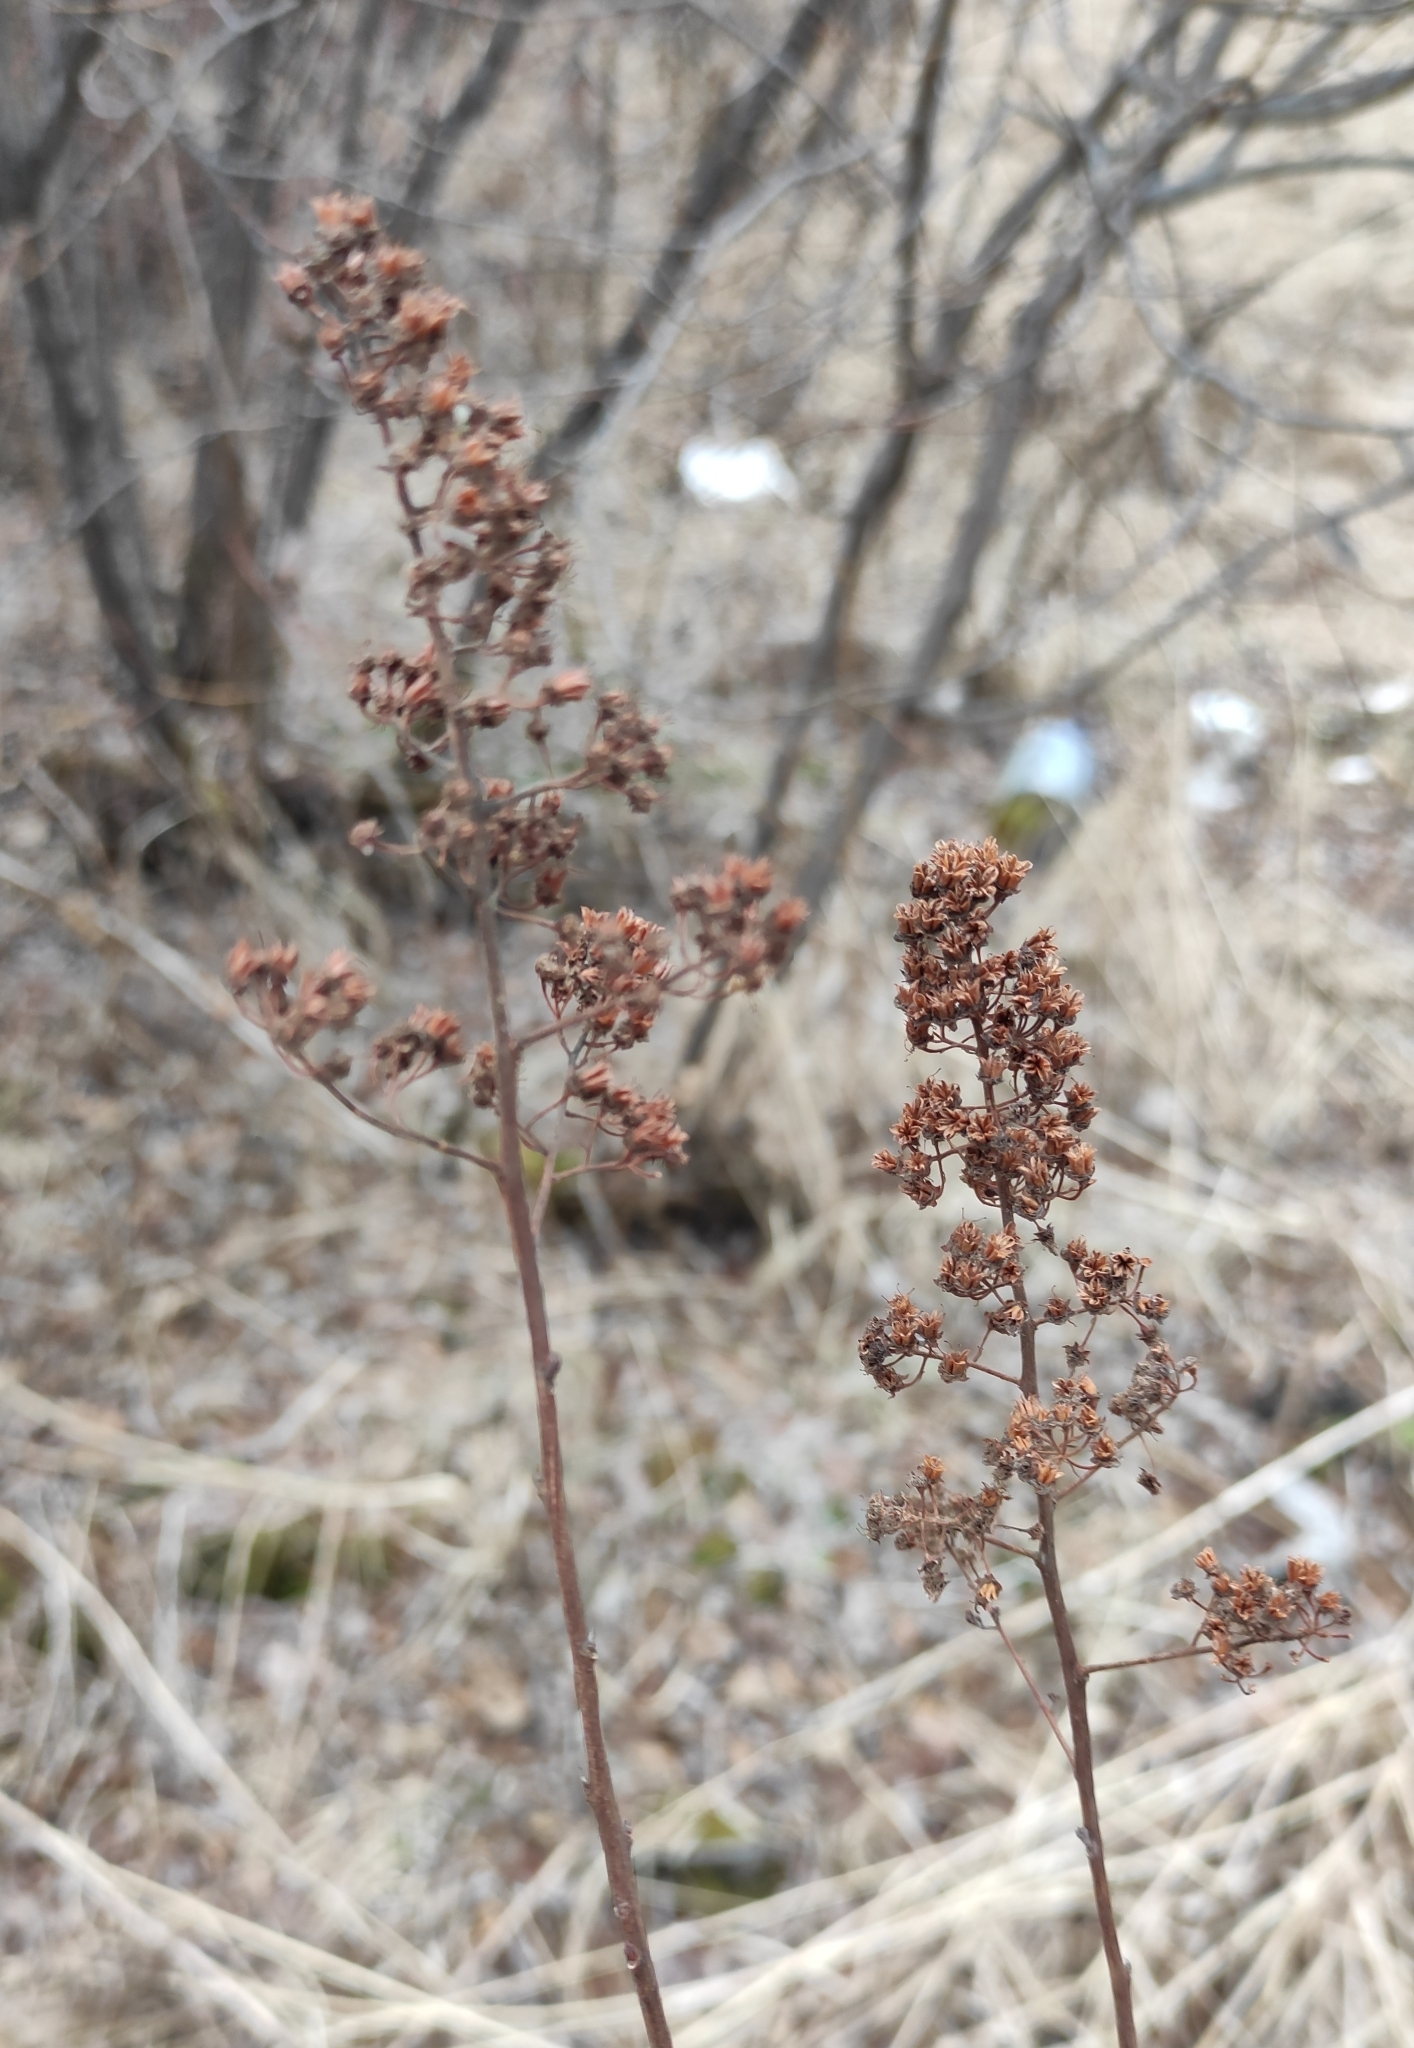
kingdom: Plantae
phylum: Tracheophyta
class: Magnoliopsida
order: Rosales
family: Rosaceae
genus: Spiraea
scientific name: Spiraea salicifolia
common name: Bridewort
